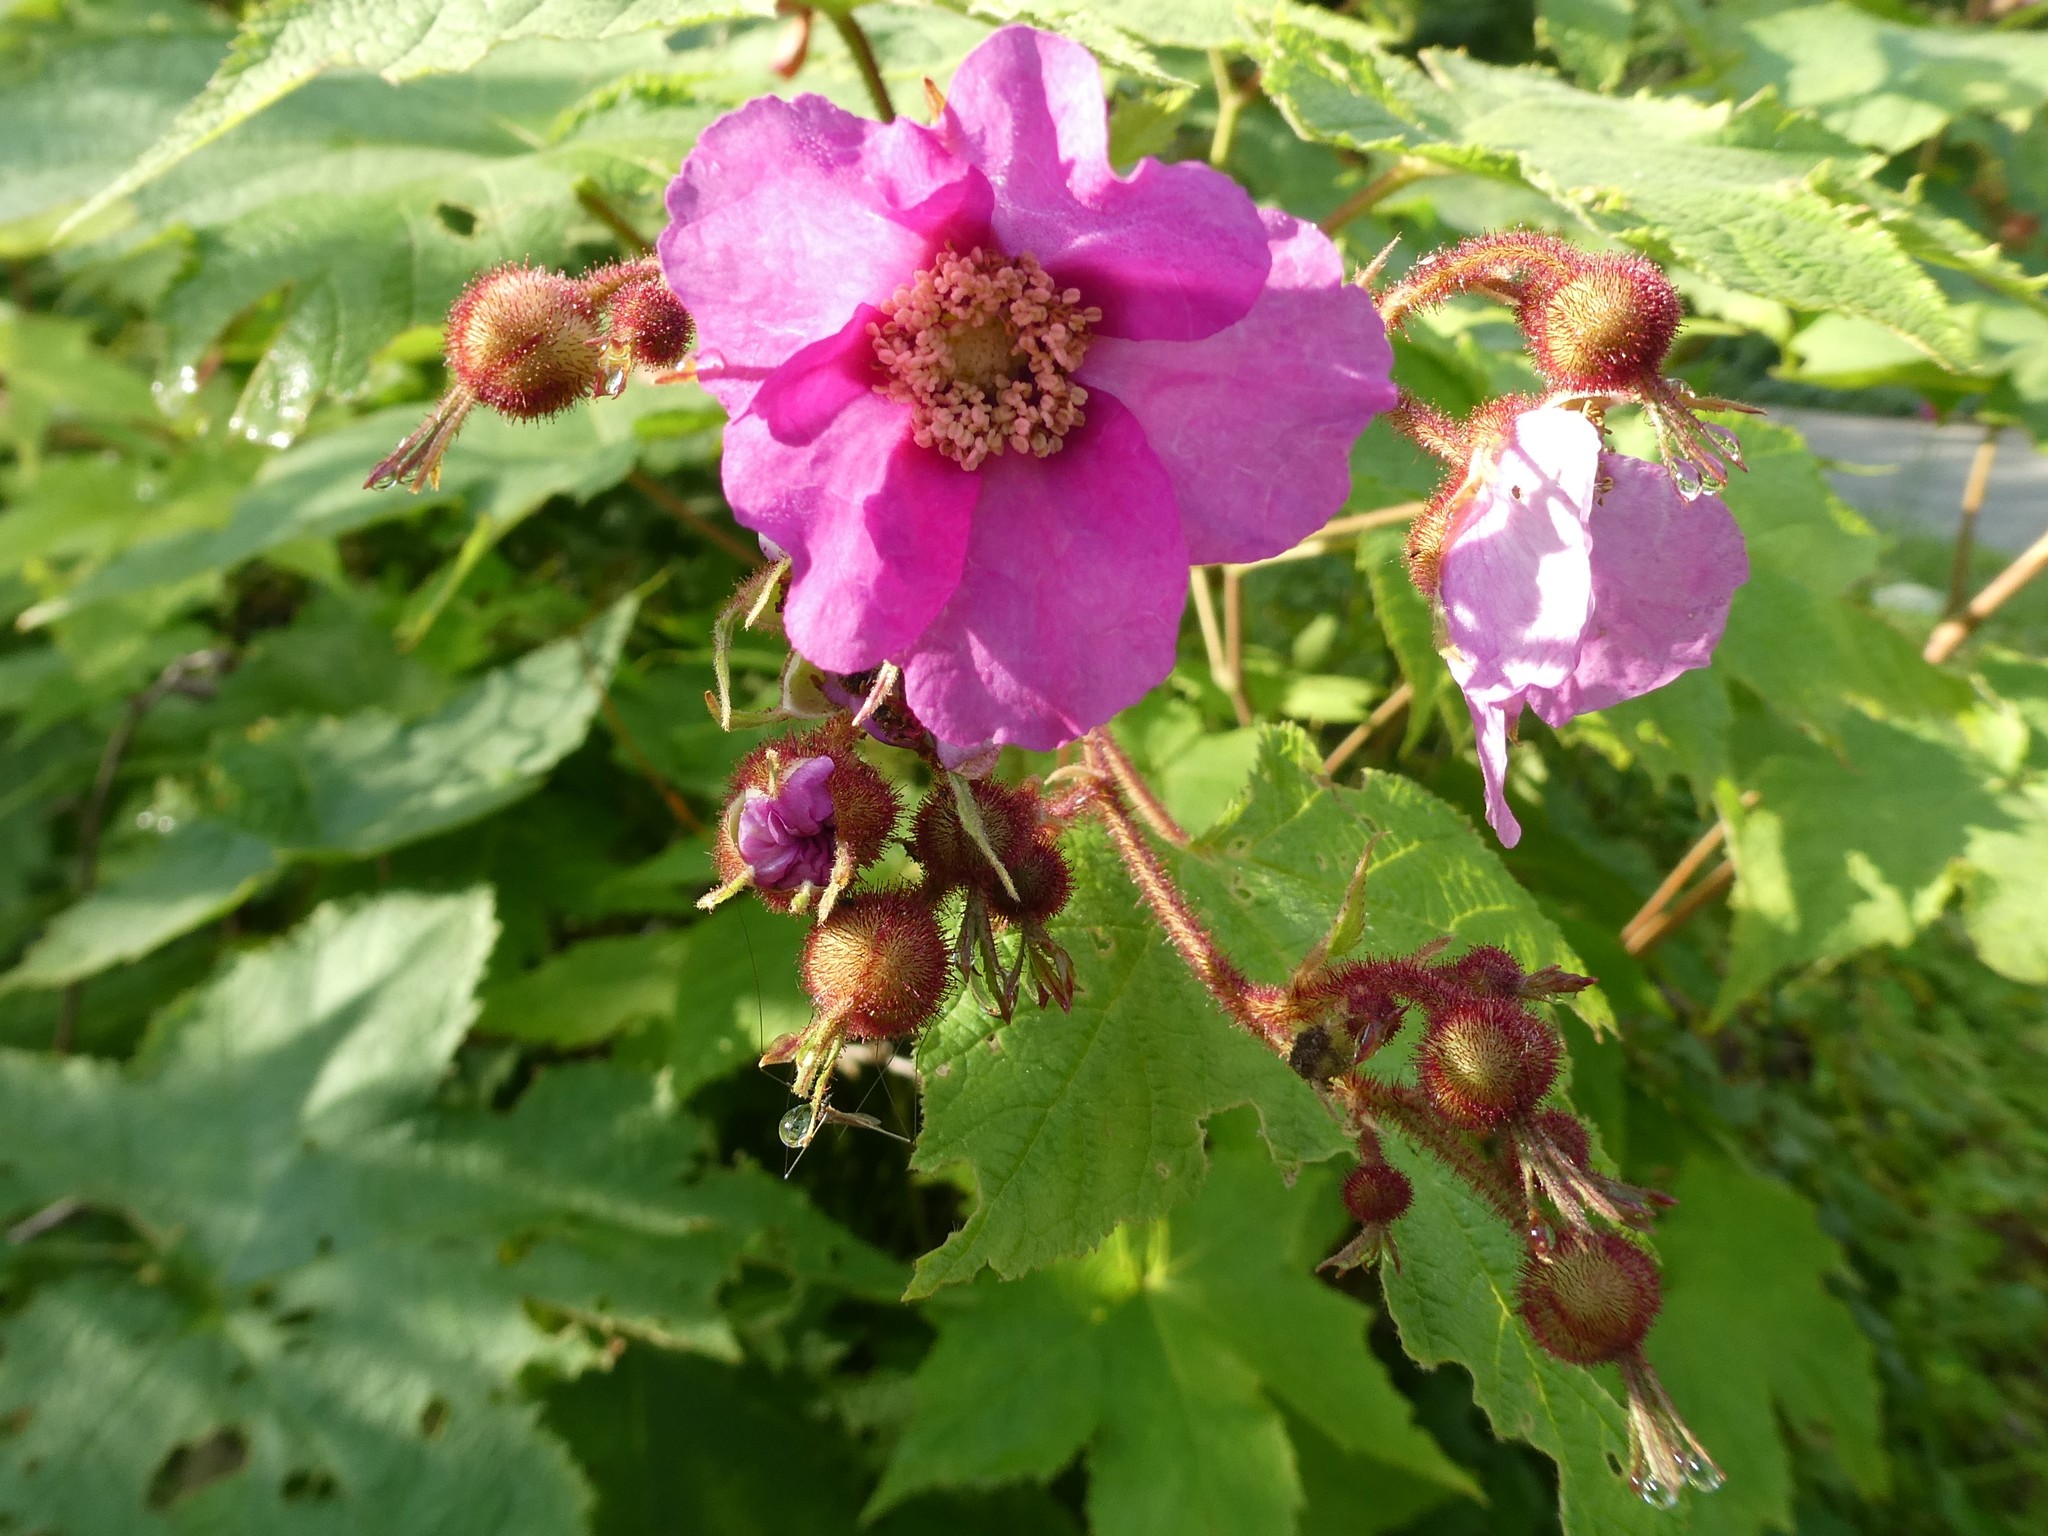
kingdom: Plantae
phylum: Tracheophyta
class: Magnoliopsida
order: Rosales
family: Rosaceae
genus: Rubus
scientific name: Rubus odoratus
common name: Purple-flowered raspberry
